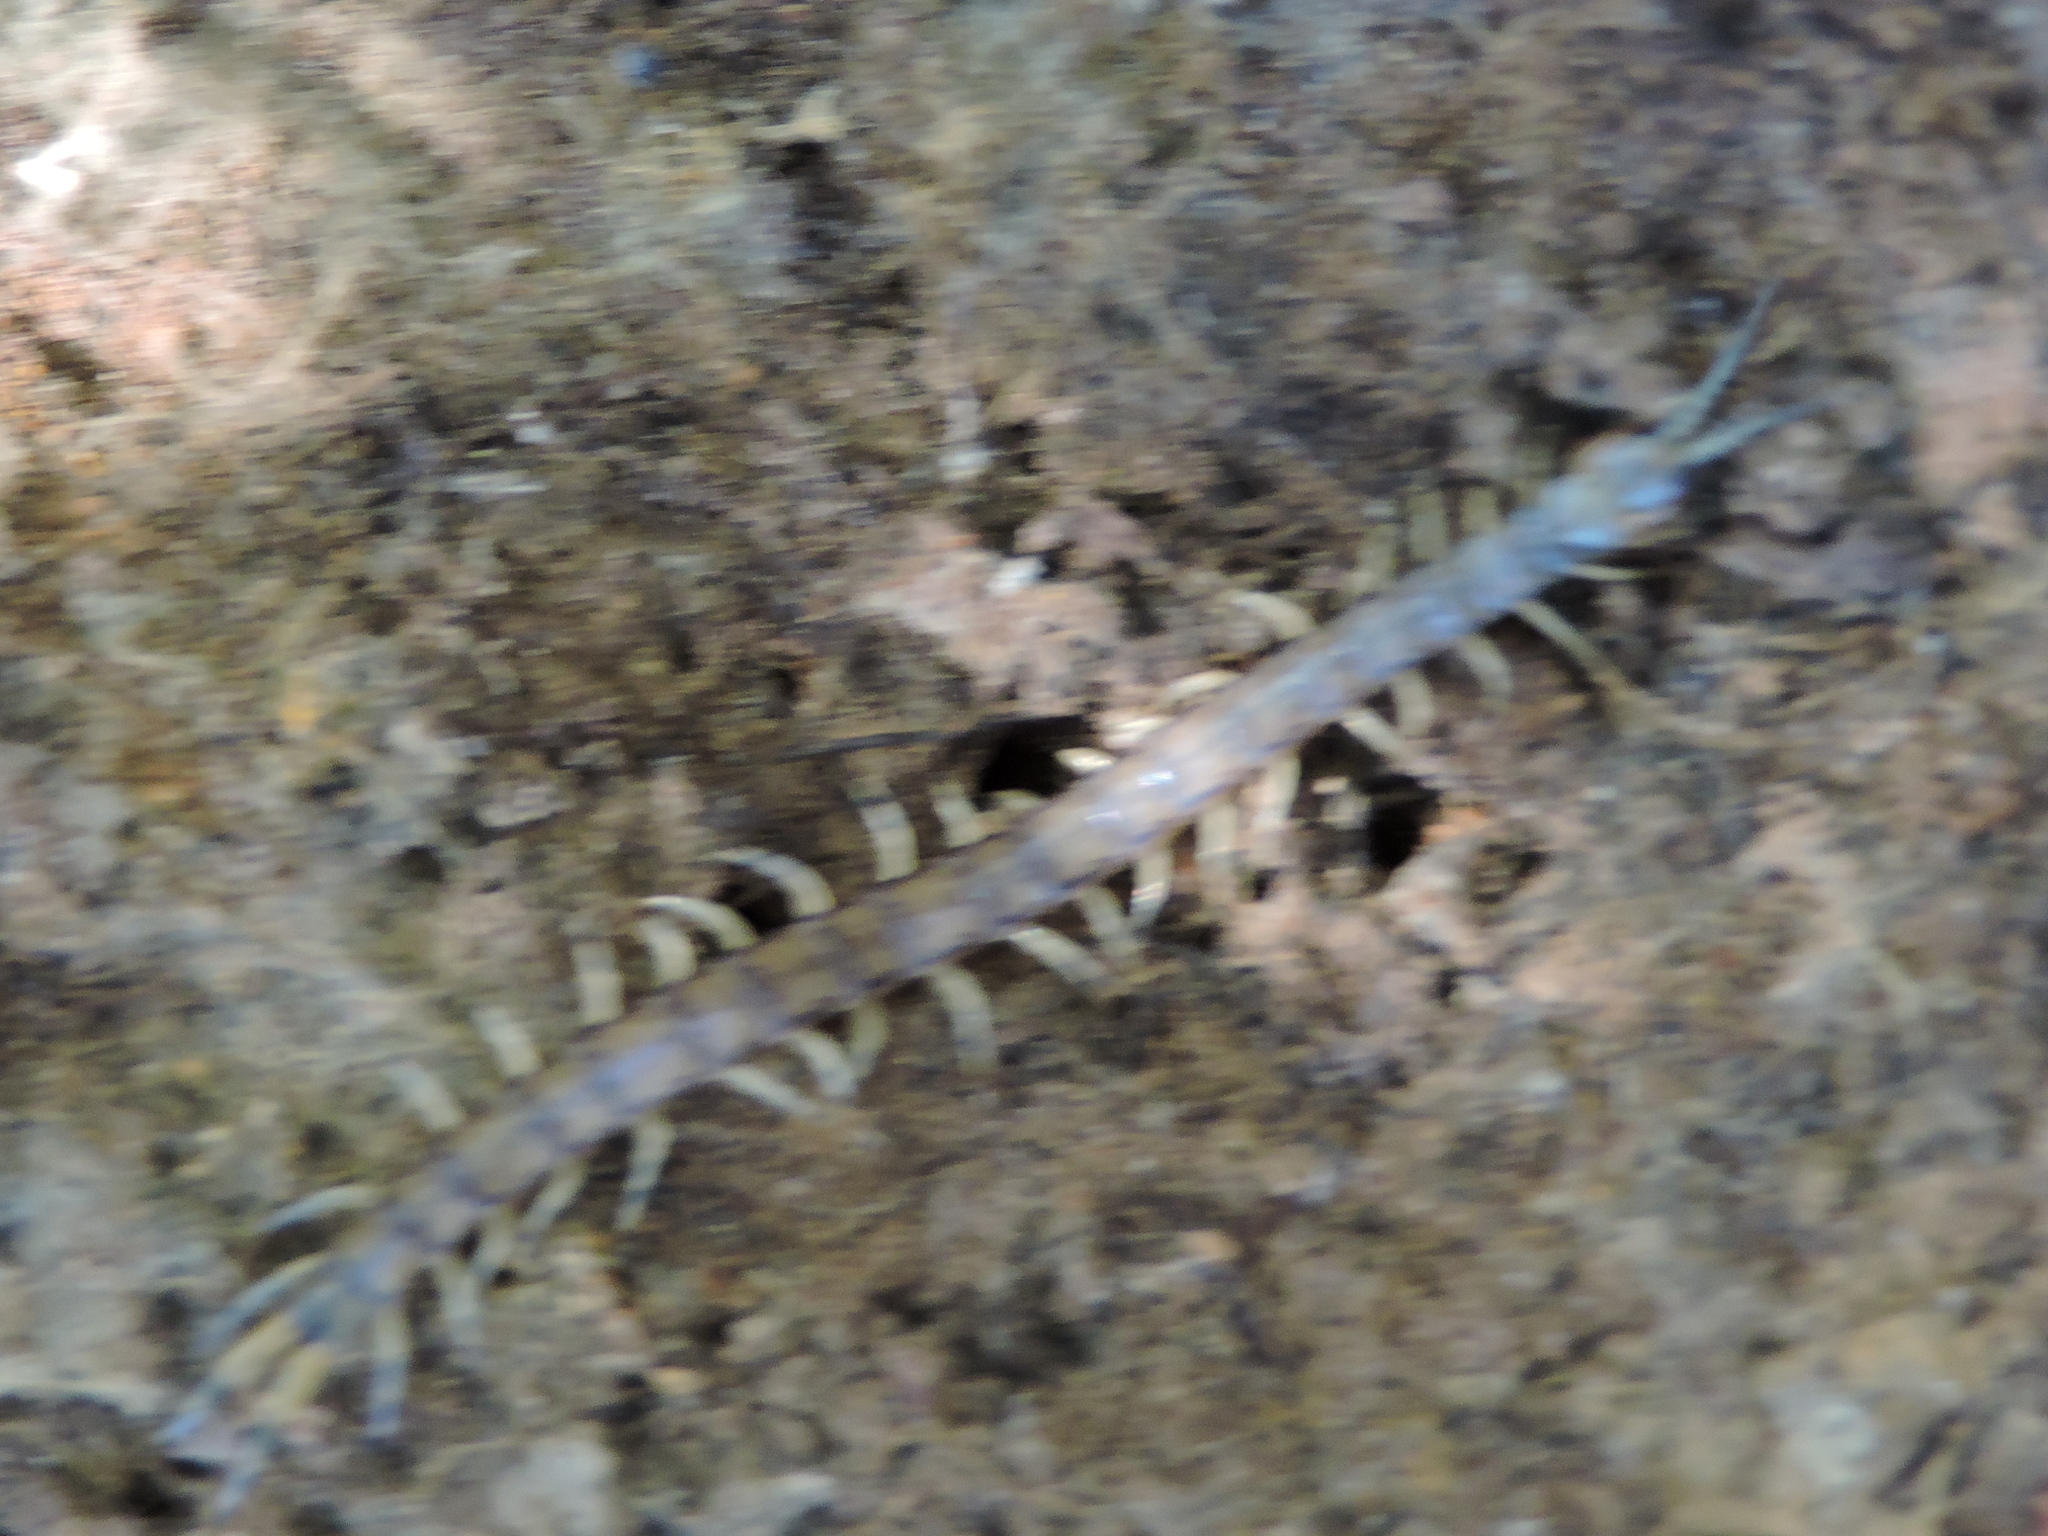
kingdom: Animalia
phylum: Arthropoda
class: Chilopoda
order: Scolopendromorpha
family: Scolopendridae
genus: Hemiscolopendra
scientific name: Hemiscolopendra marginata
